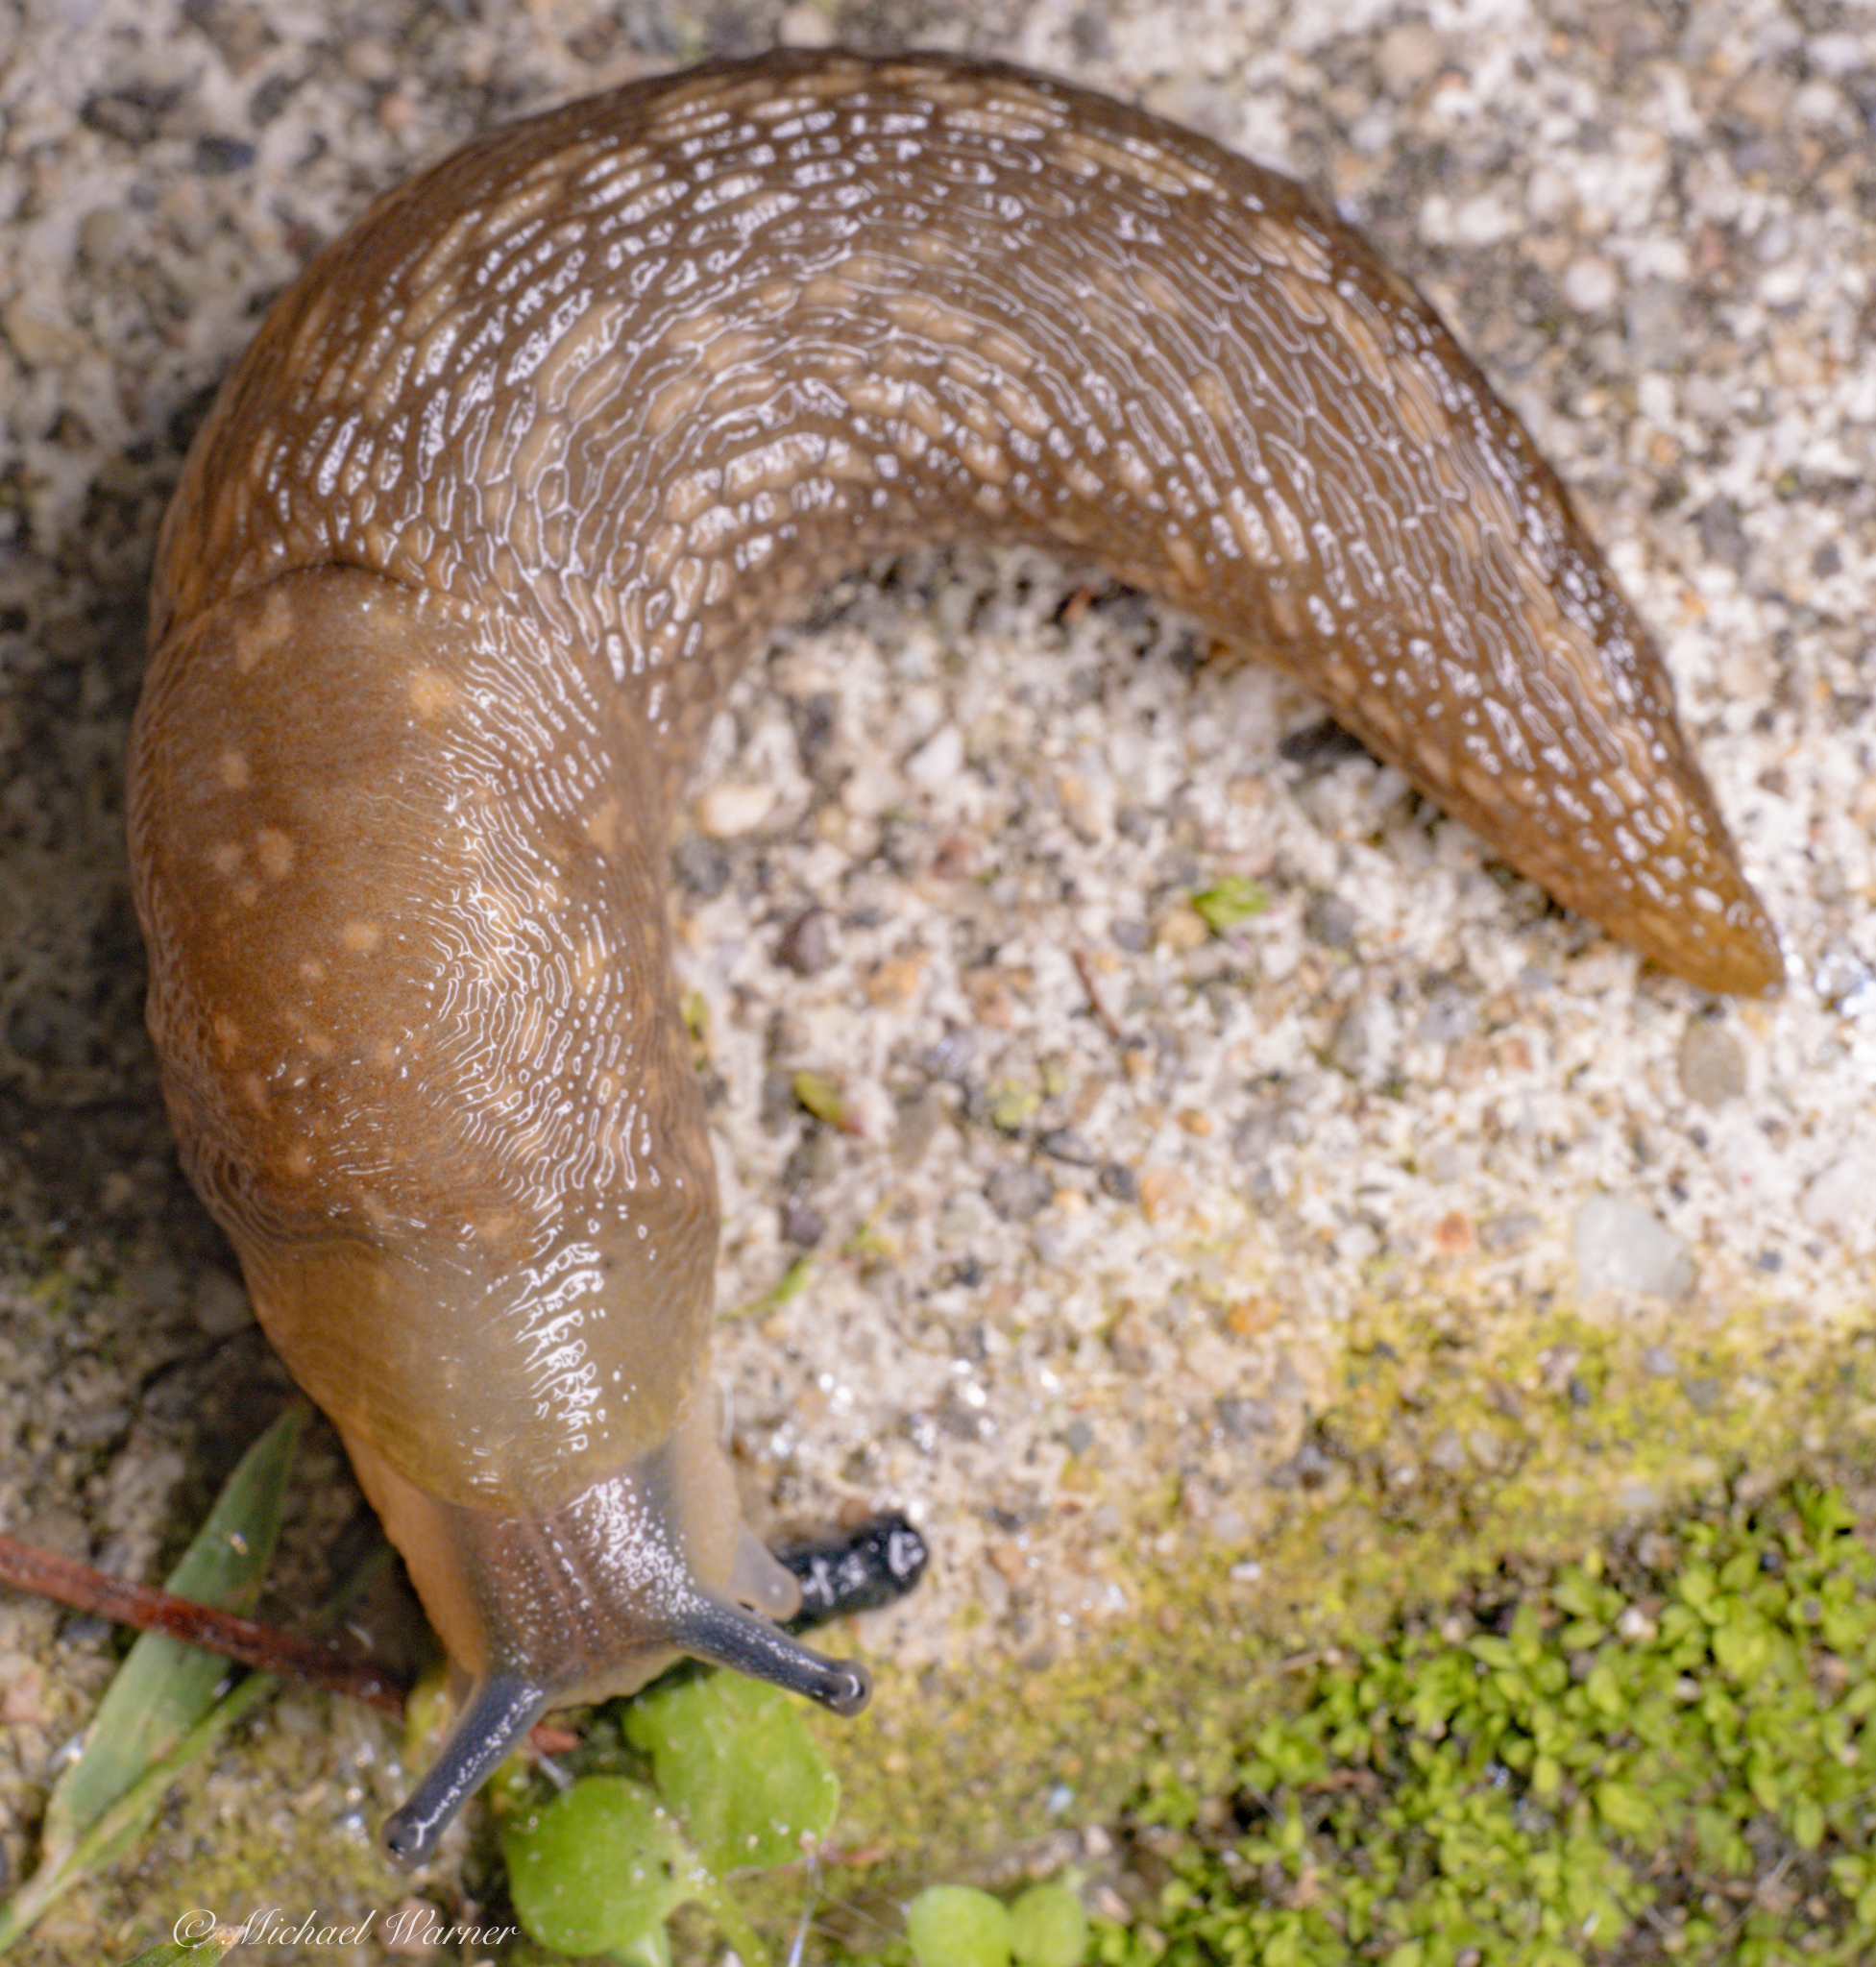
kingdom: Animalia
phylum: Mollusca
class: Gastropoda
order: Stylommatophora
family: Limacidae
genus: Limacus
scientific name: Limacus flavus
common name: Yellow gardenslug
